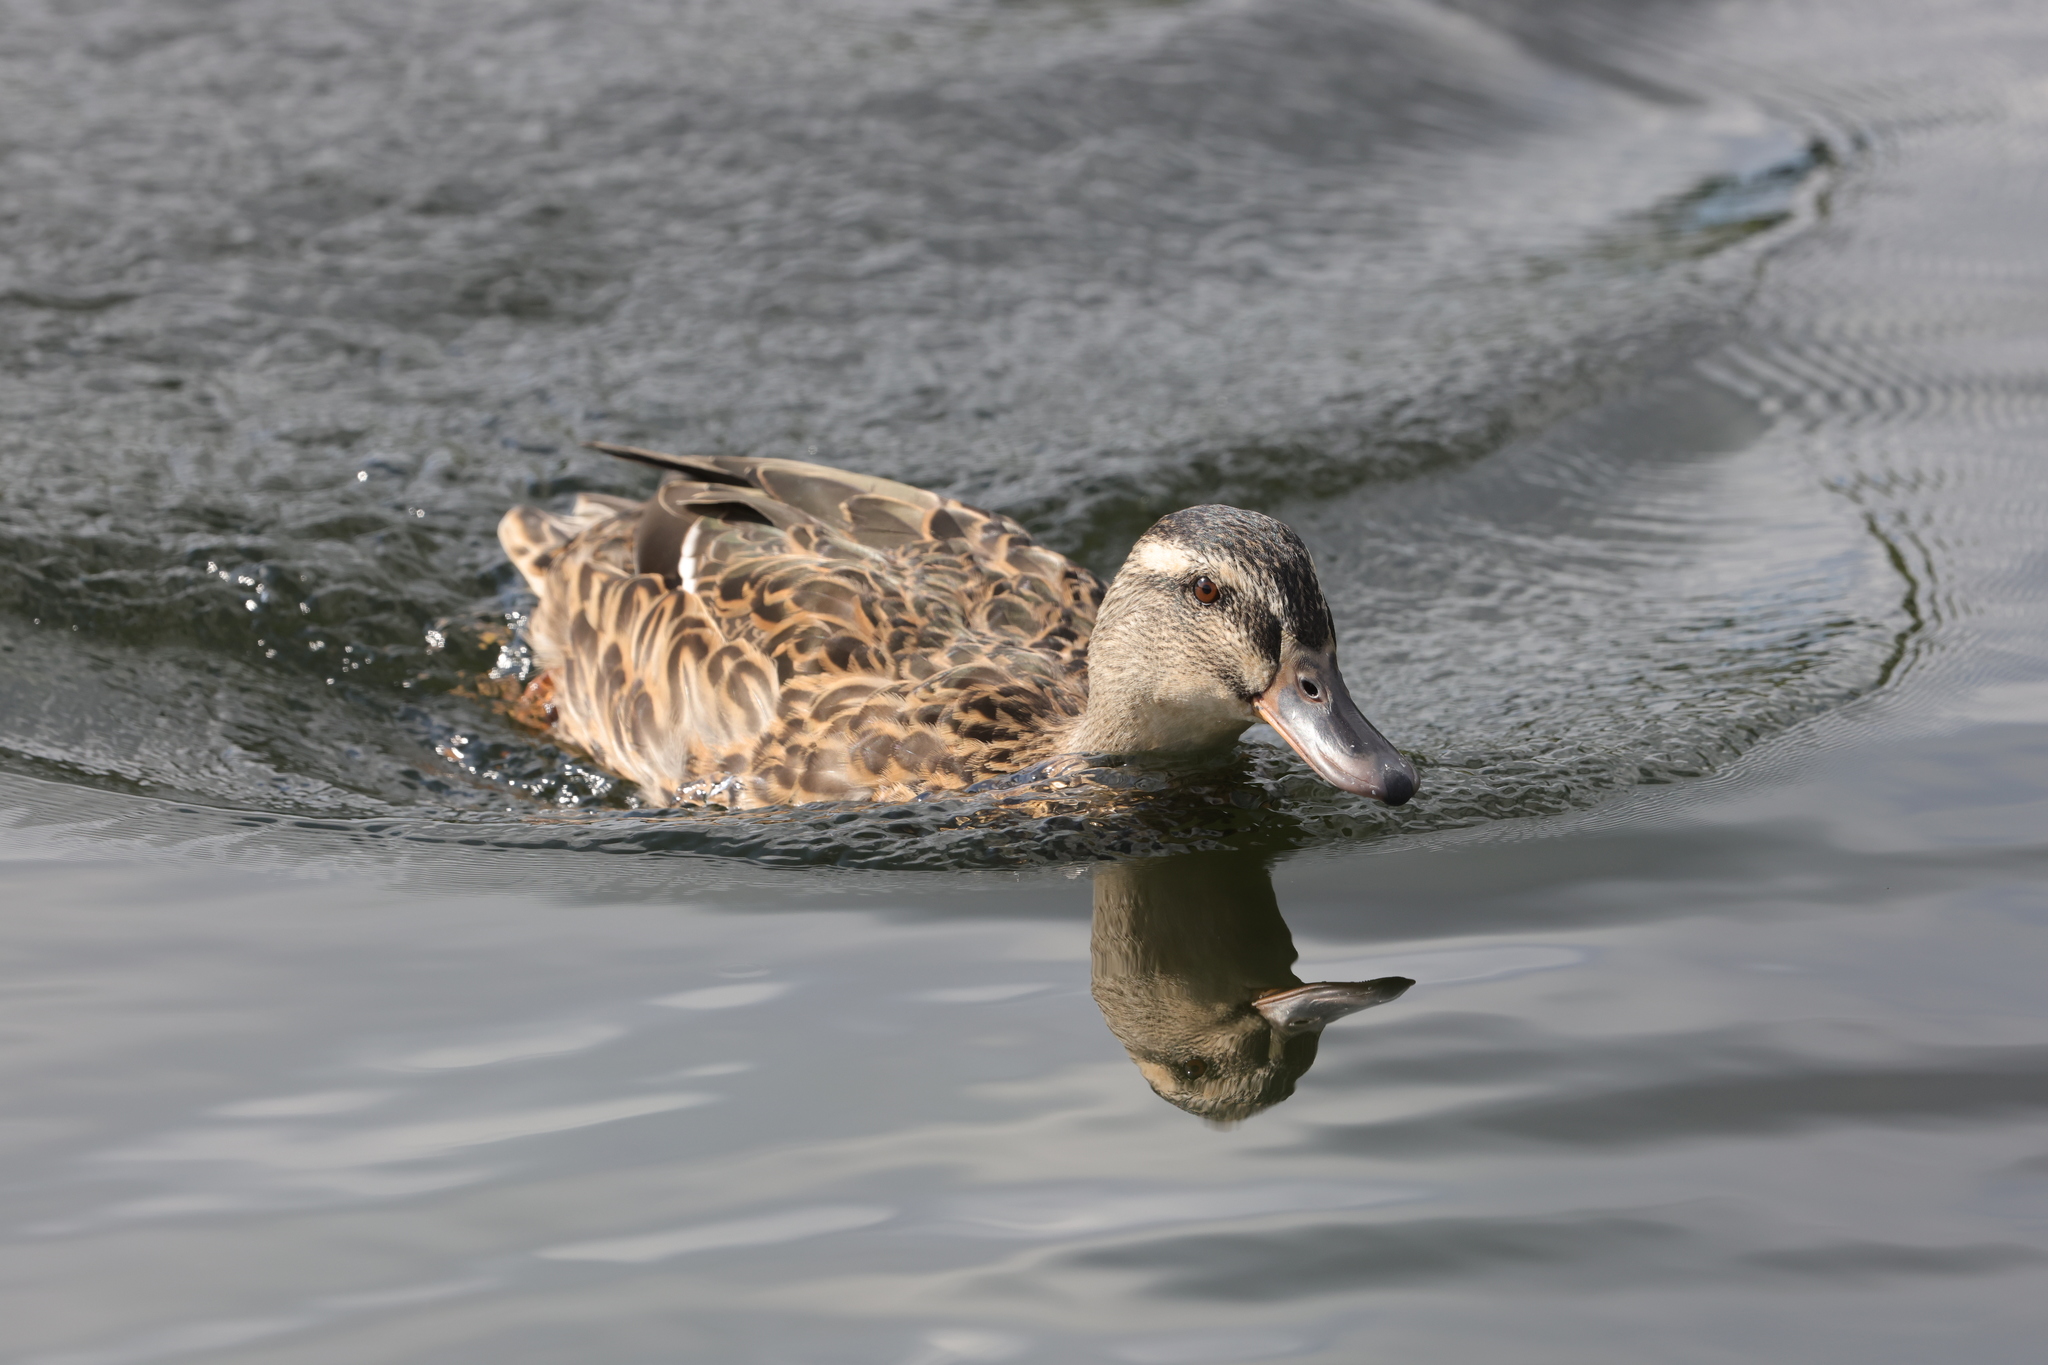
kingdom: Animalia
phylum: Chordata
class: Aves
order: Anseriformes
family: Anatidae
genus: Anas
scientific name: Anas platyrhynchos
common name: Mallard
